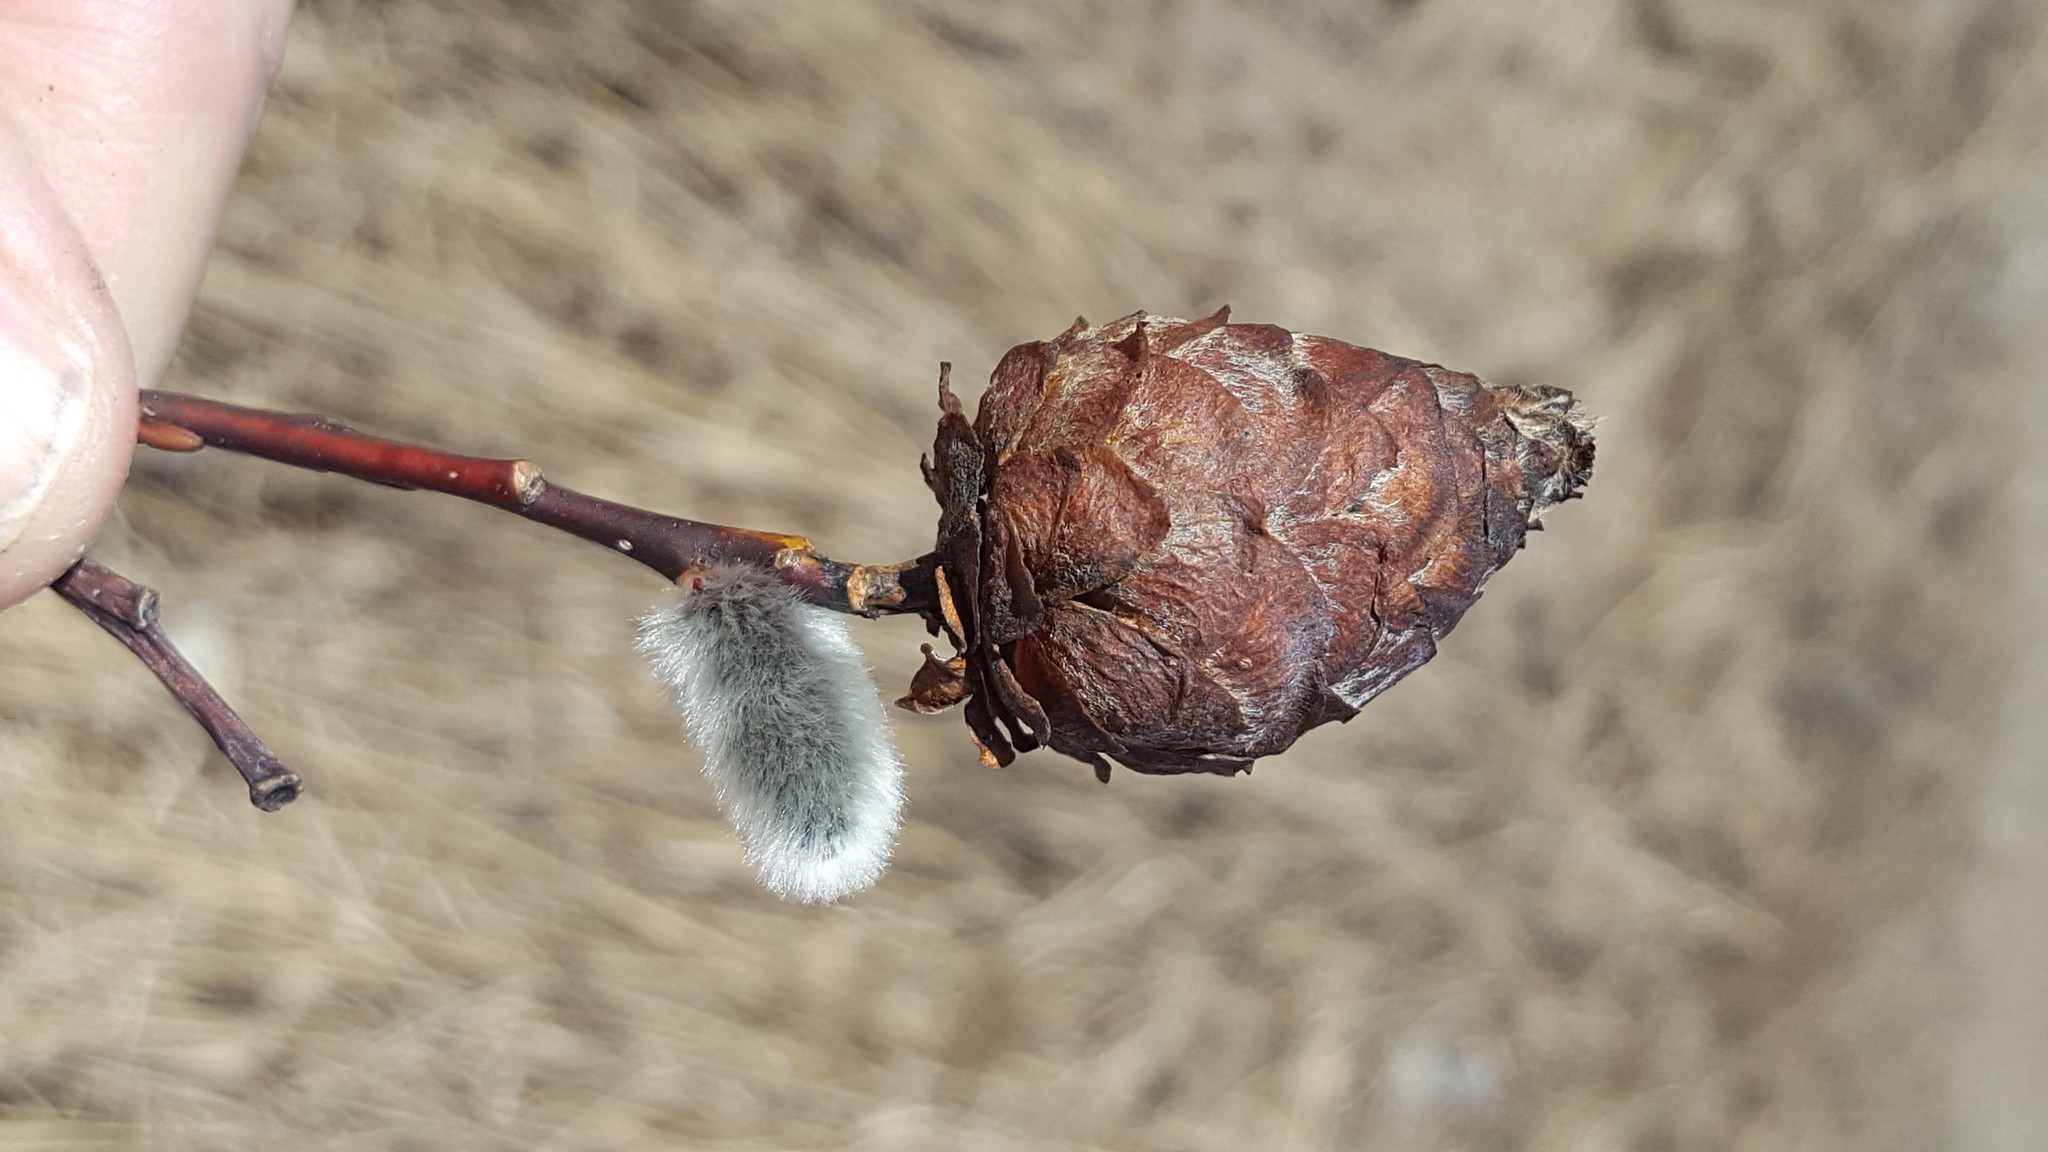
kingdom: Animalia
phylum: Arthropoda
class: Insecta
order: Diptera
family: Cecidomyiidae
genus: Rabdophaga
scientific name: Rabdophaga strobiloides
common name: Willow pinecone gall midge
